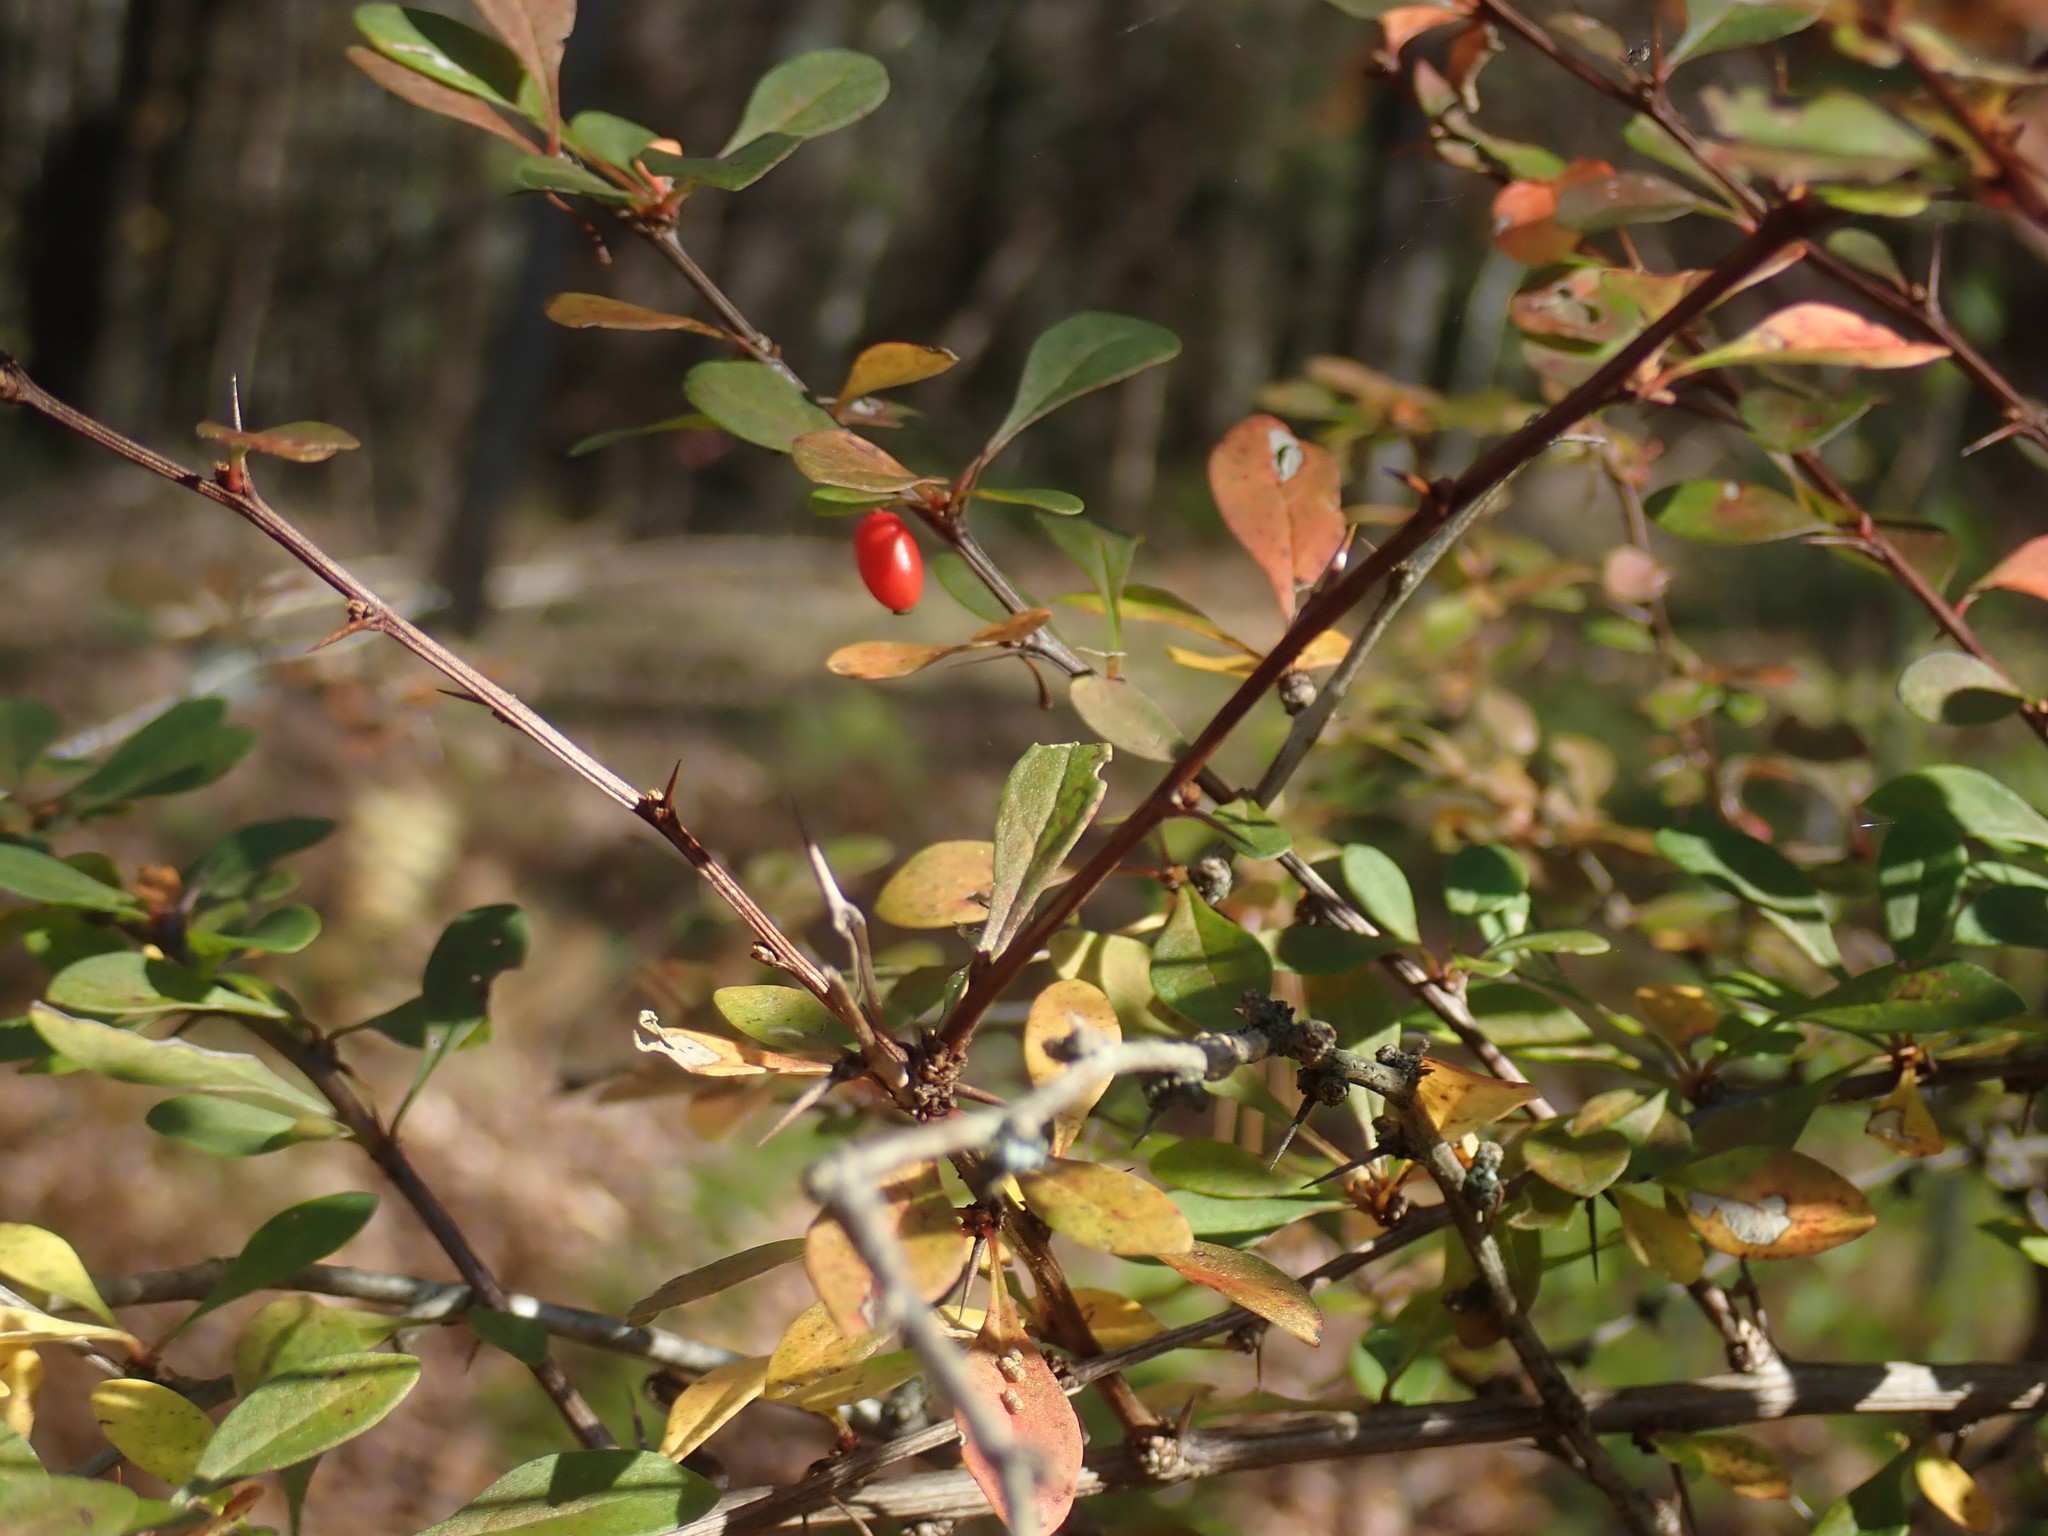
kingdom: Plantae
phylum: Tracheophyta
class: Magnoliopsida
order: Ranunculales
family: Berberidaceae
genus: Berberis
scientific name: Berberis thunbergii
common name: Japanese barberry
